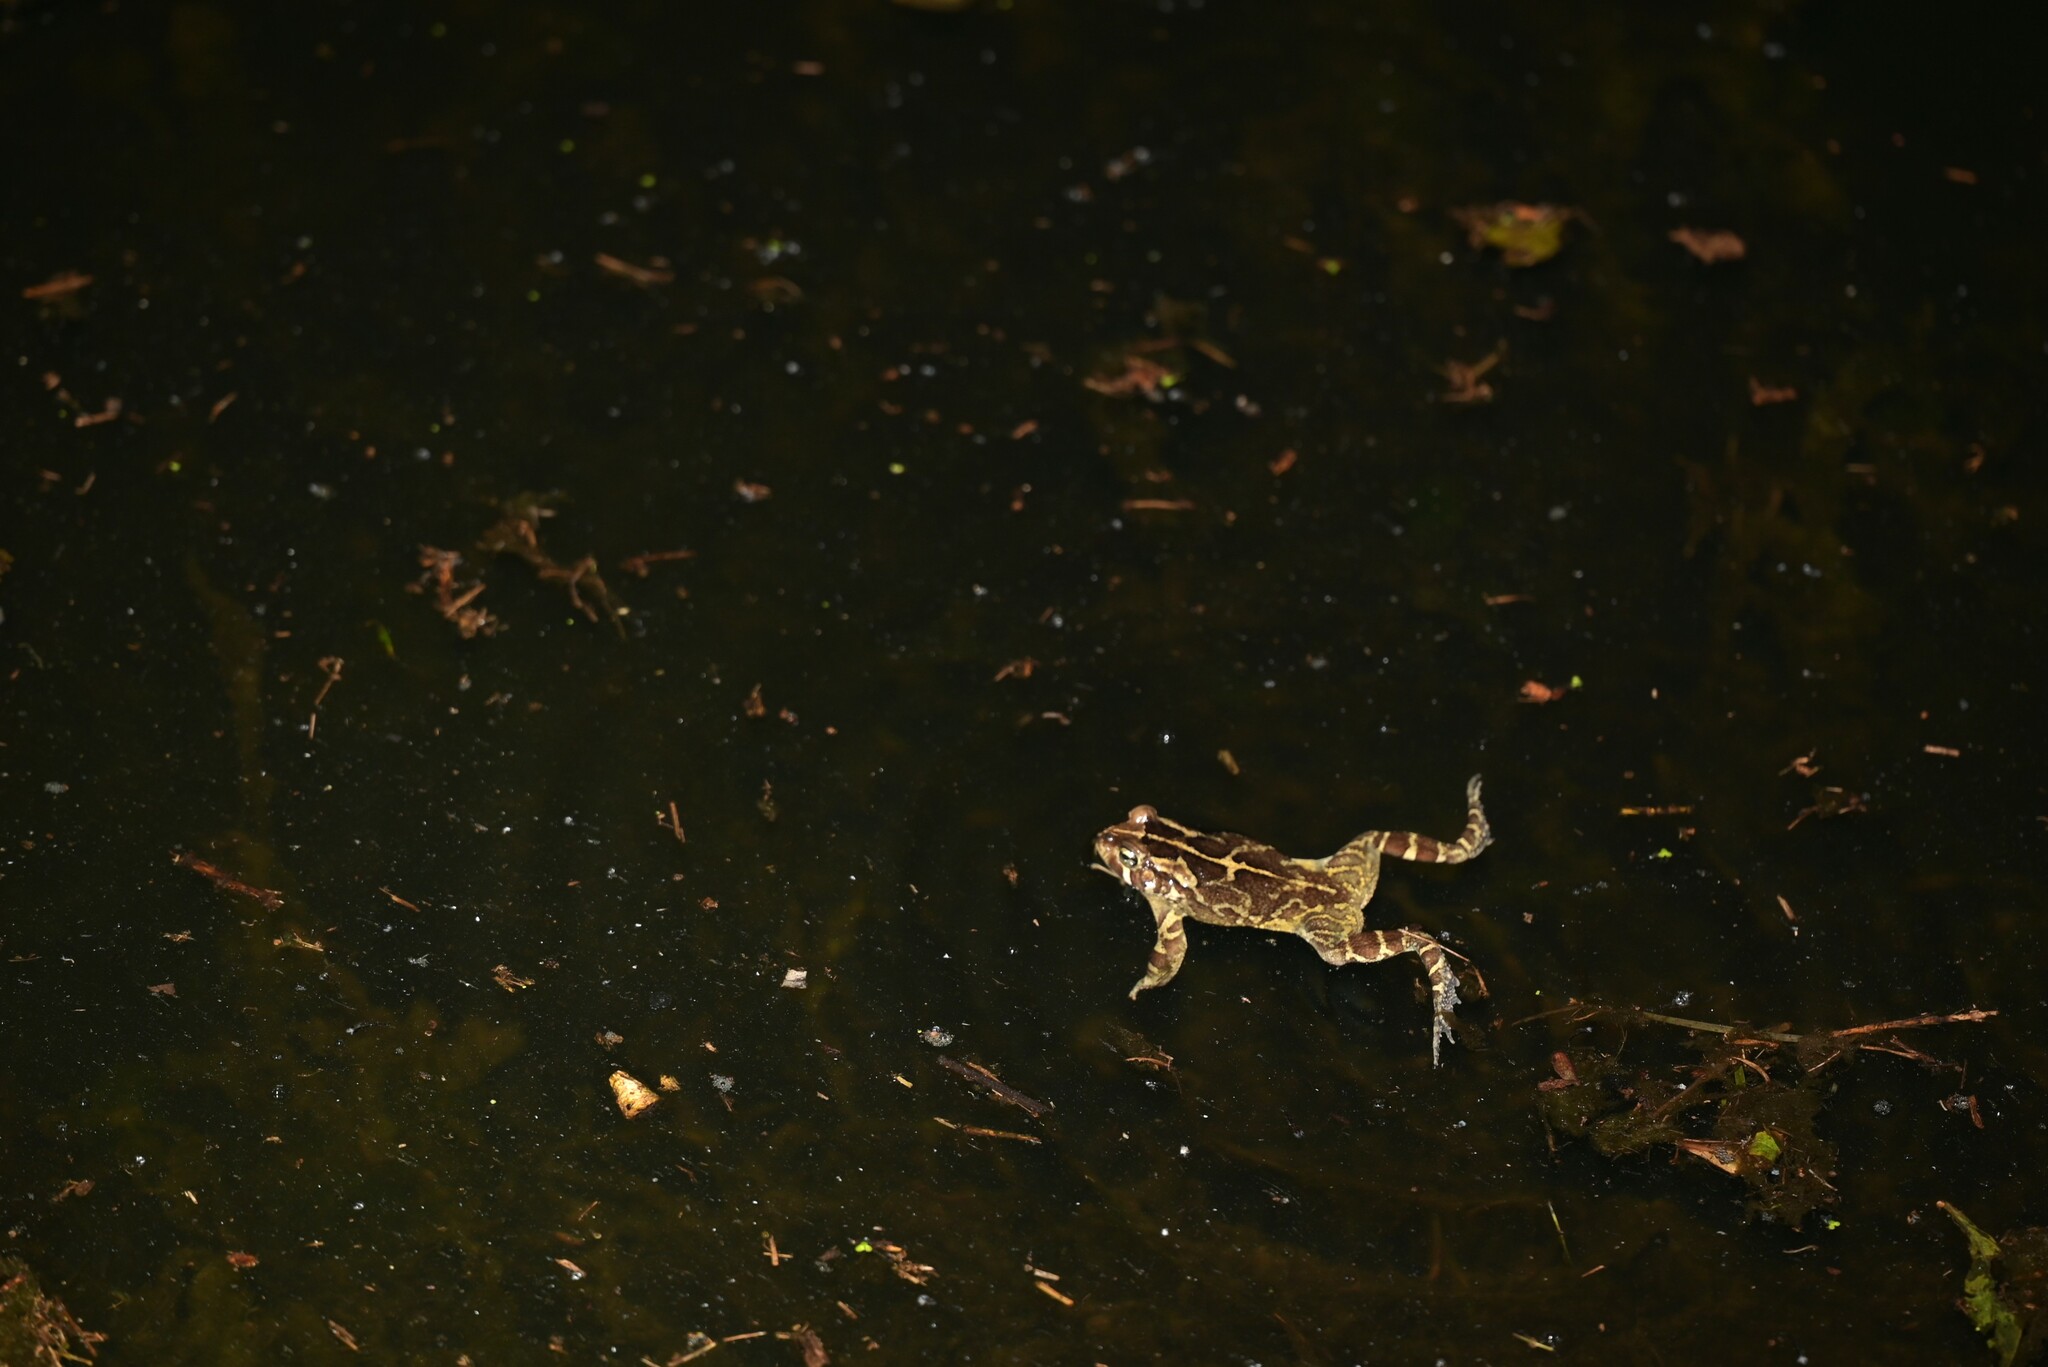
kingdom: Animalia
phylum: Chordata
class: Amphibia
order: Anura
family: Bufonidae
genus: Sclerophrys
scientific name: Sclerophrys pantherina
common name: Panther toad
